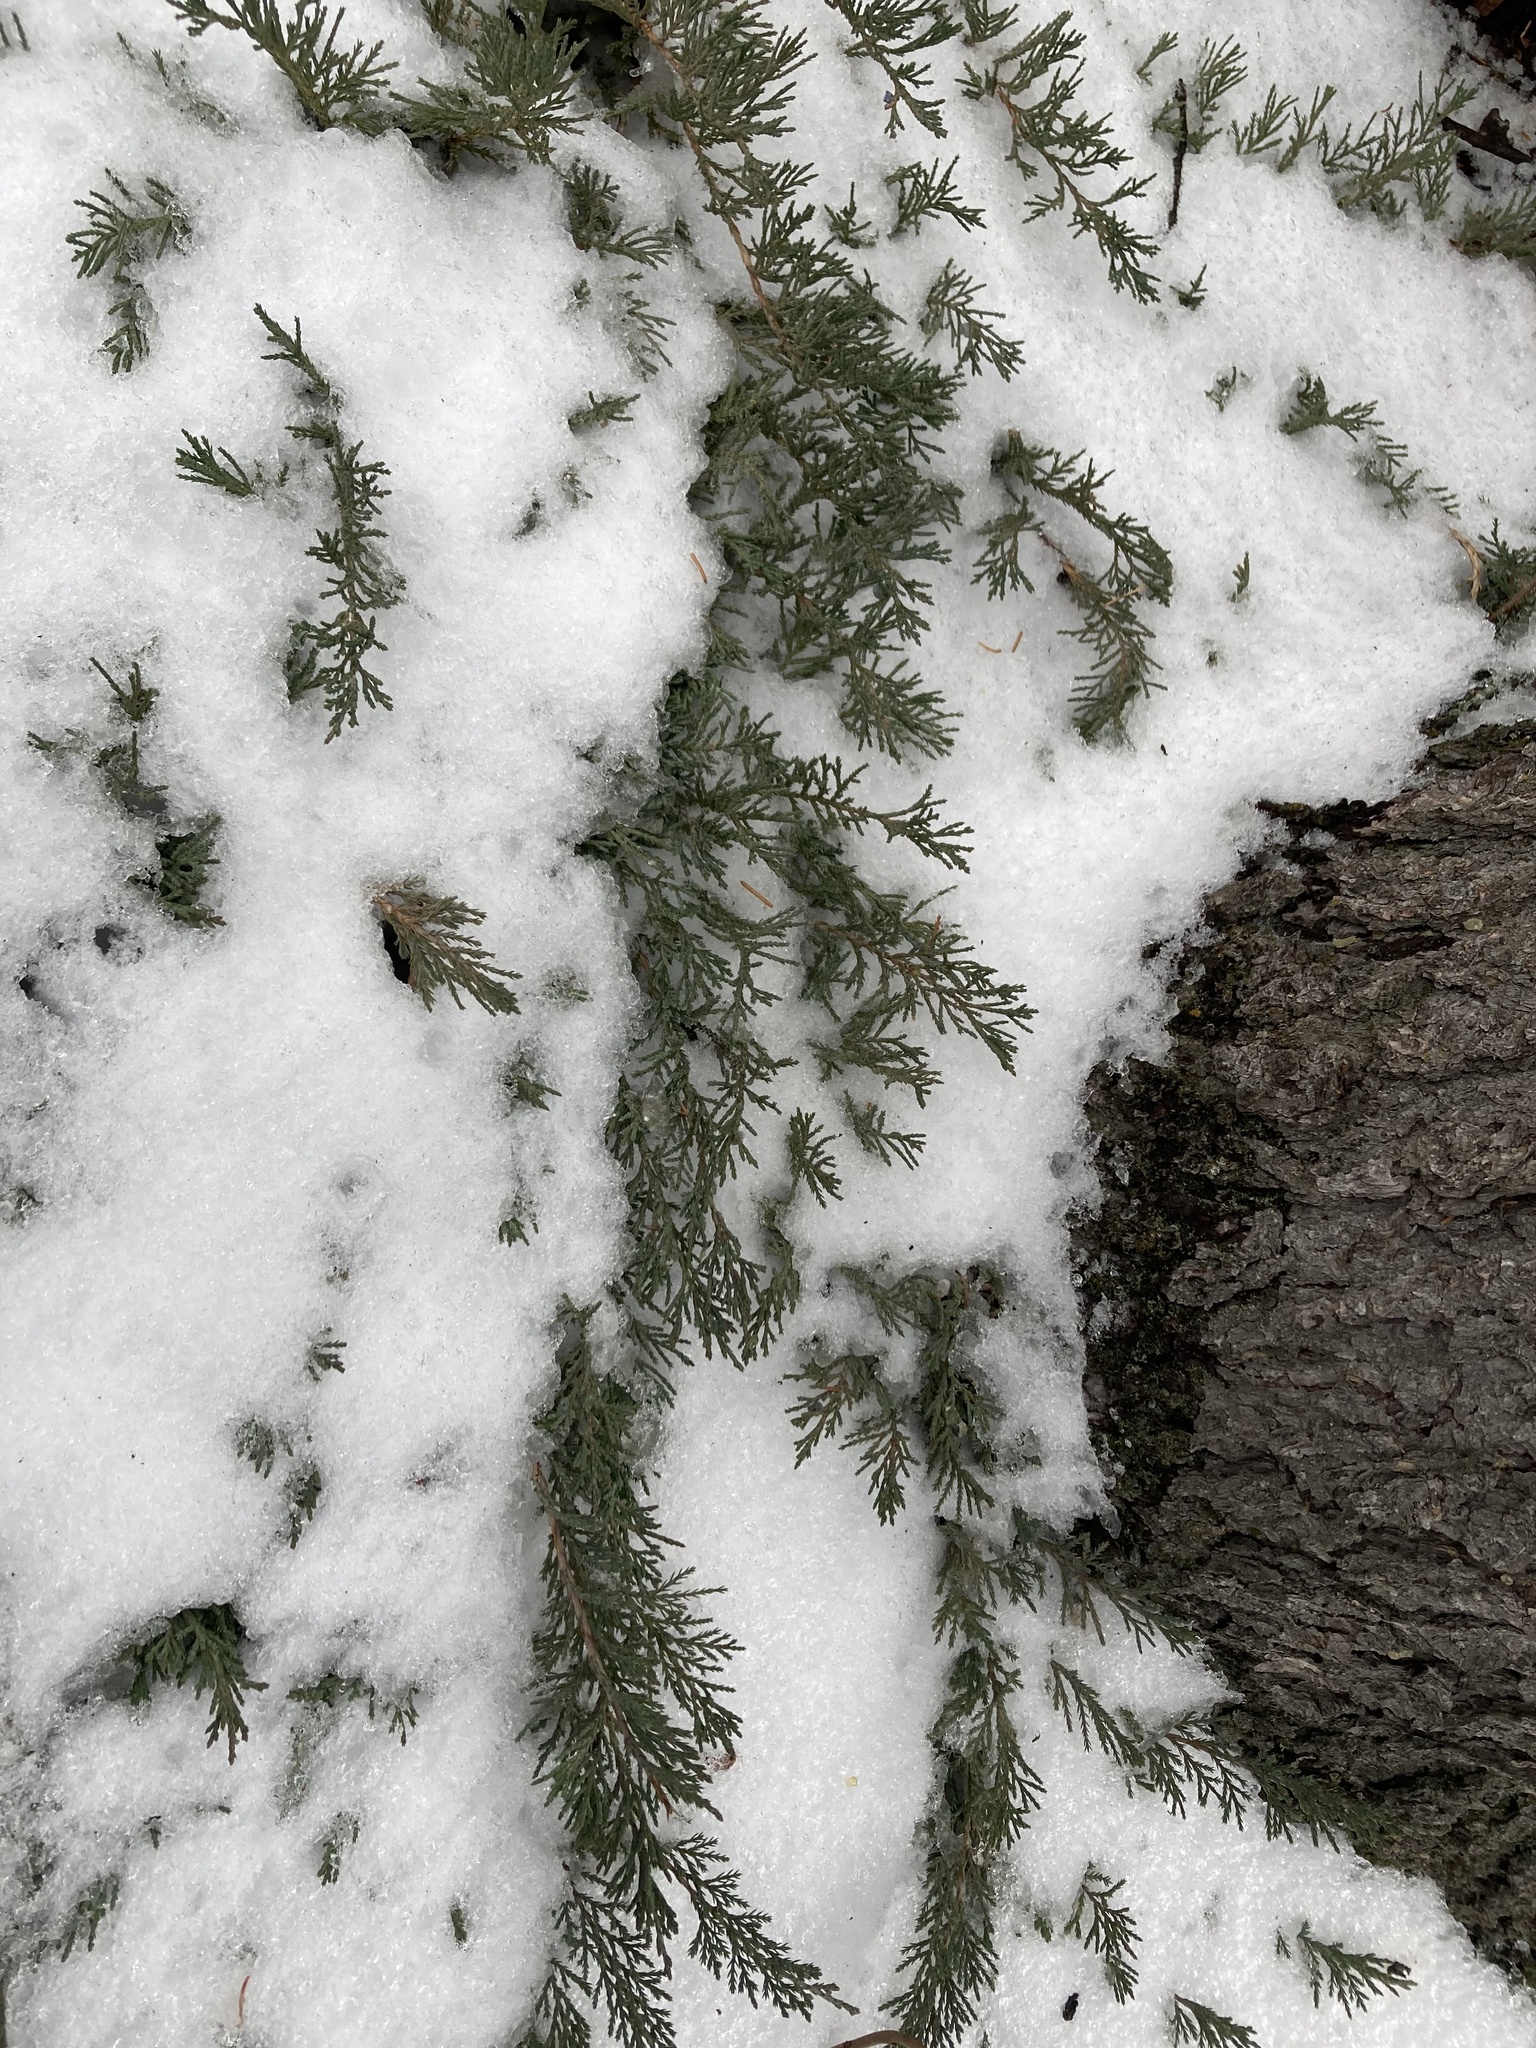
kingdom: Plantae
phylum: Tracheophyta
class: Pinopsida
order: Pinales
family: Cupressaceae
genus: Juniperus
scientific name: Juniperus horizontalis
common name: Creeping juniper
